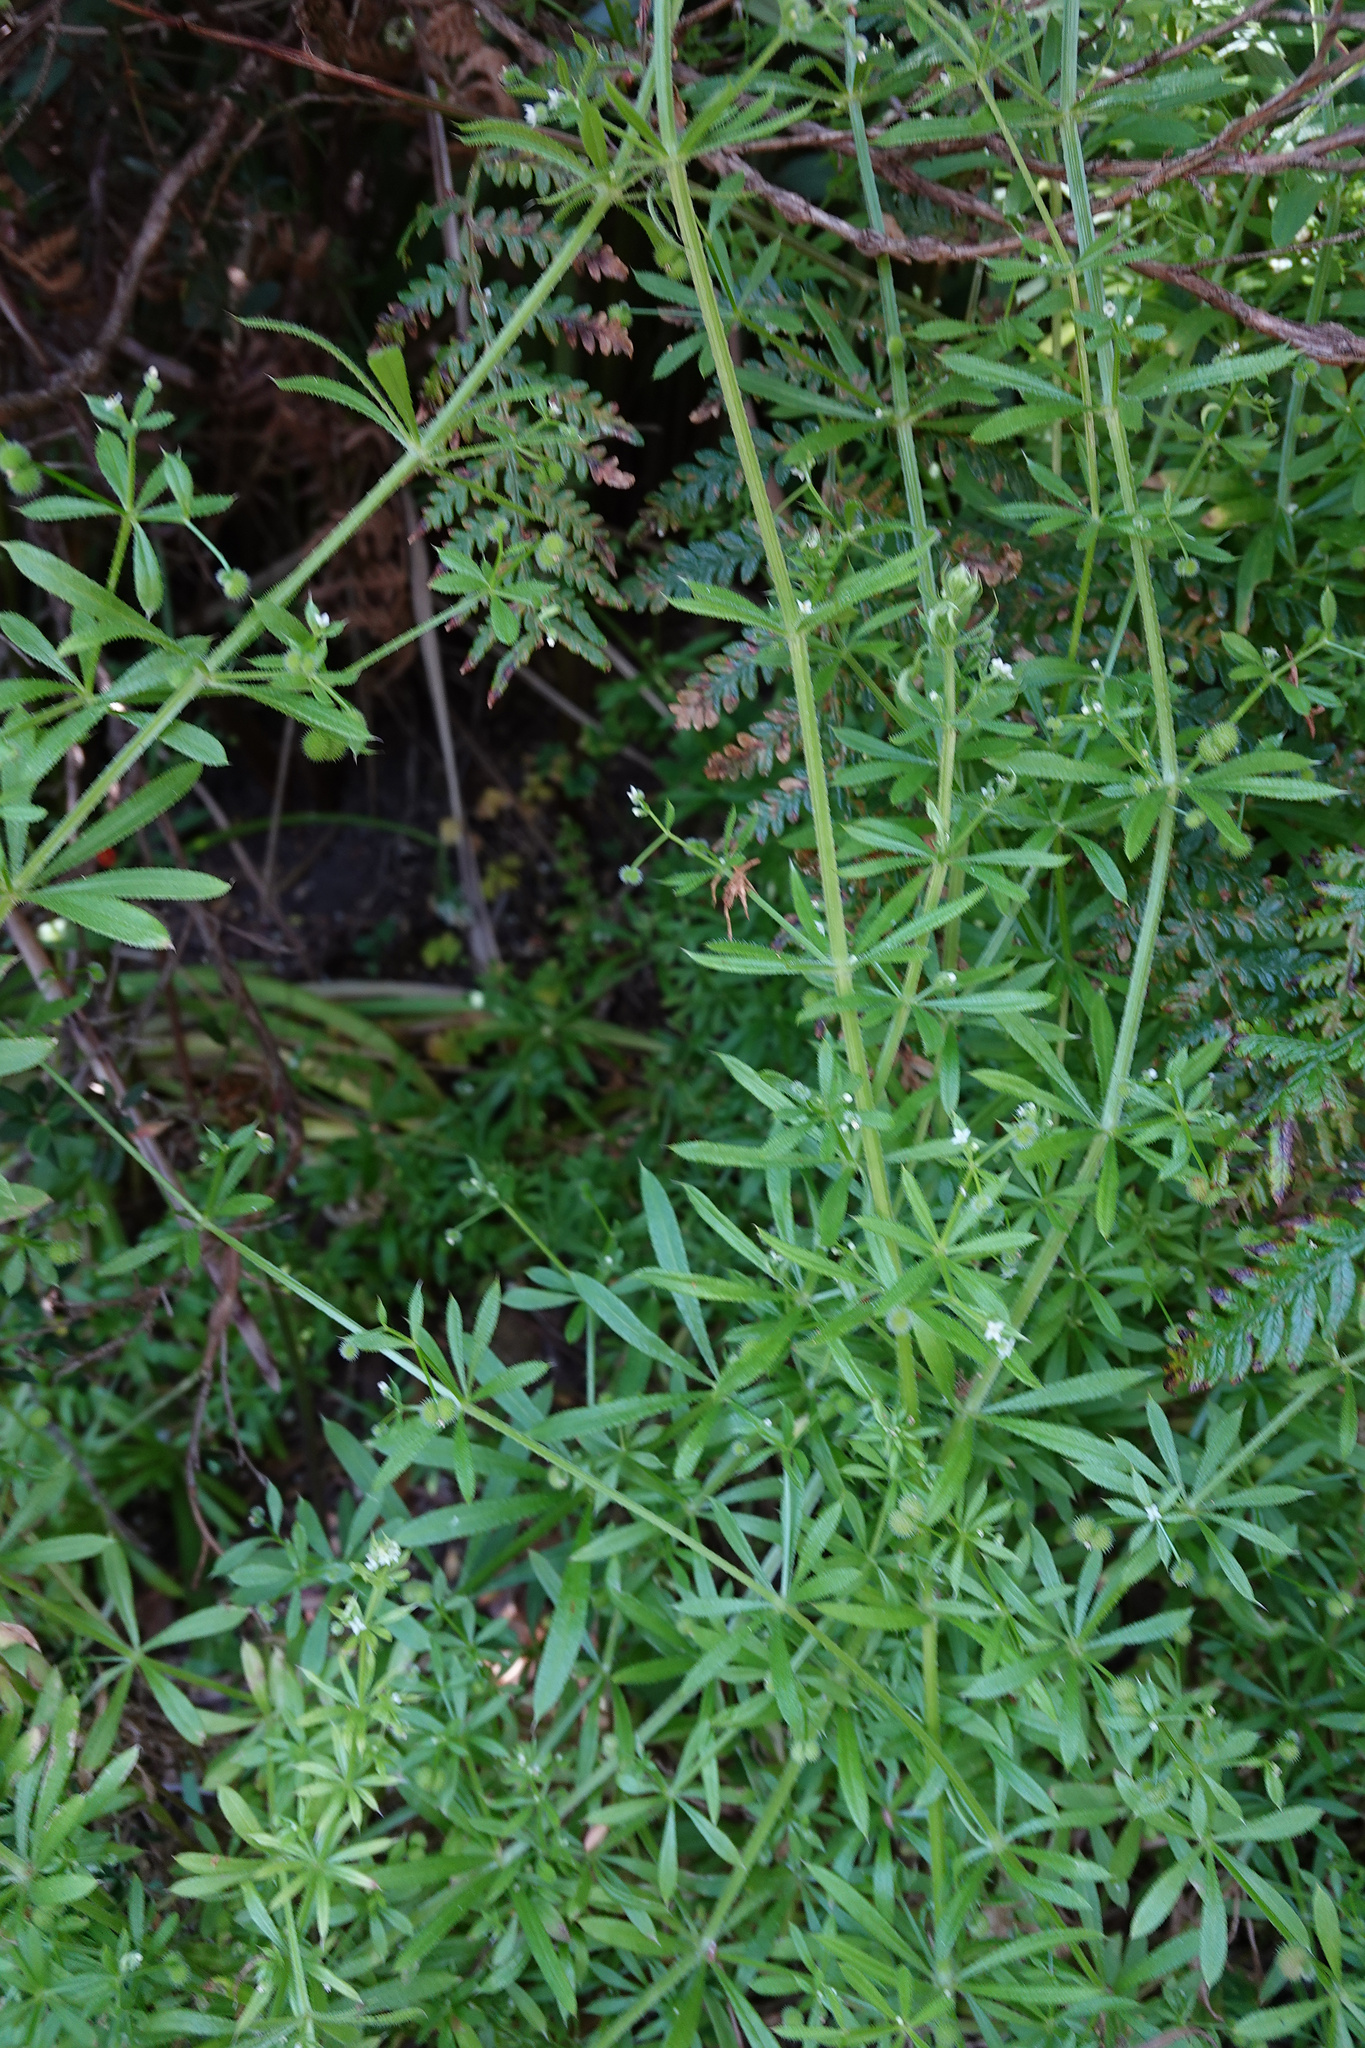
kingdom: Plantae
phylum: Tracheophyta
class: Magnoliopsida
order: Gentianales
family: Rubiaceae
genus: Galium
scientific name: Galium aparine
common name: Cleavers
